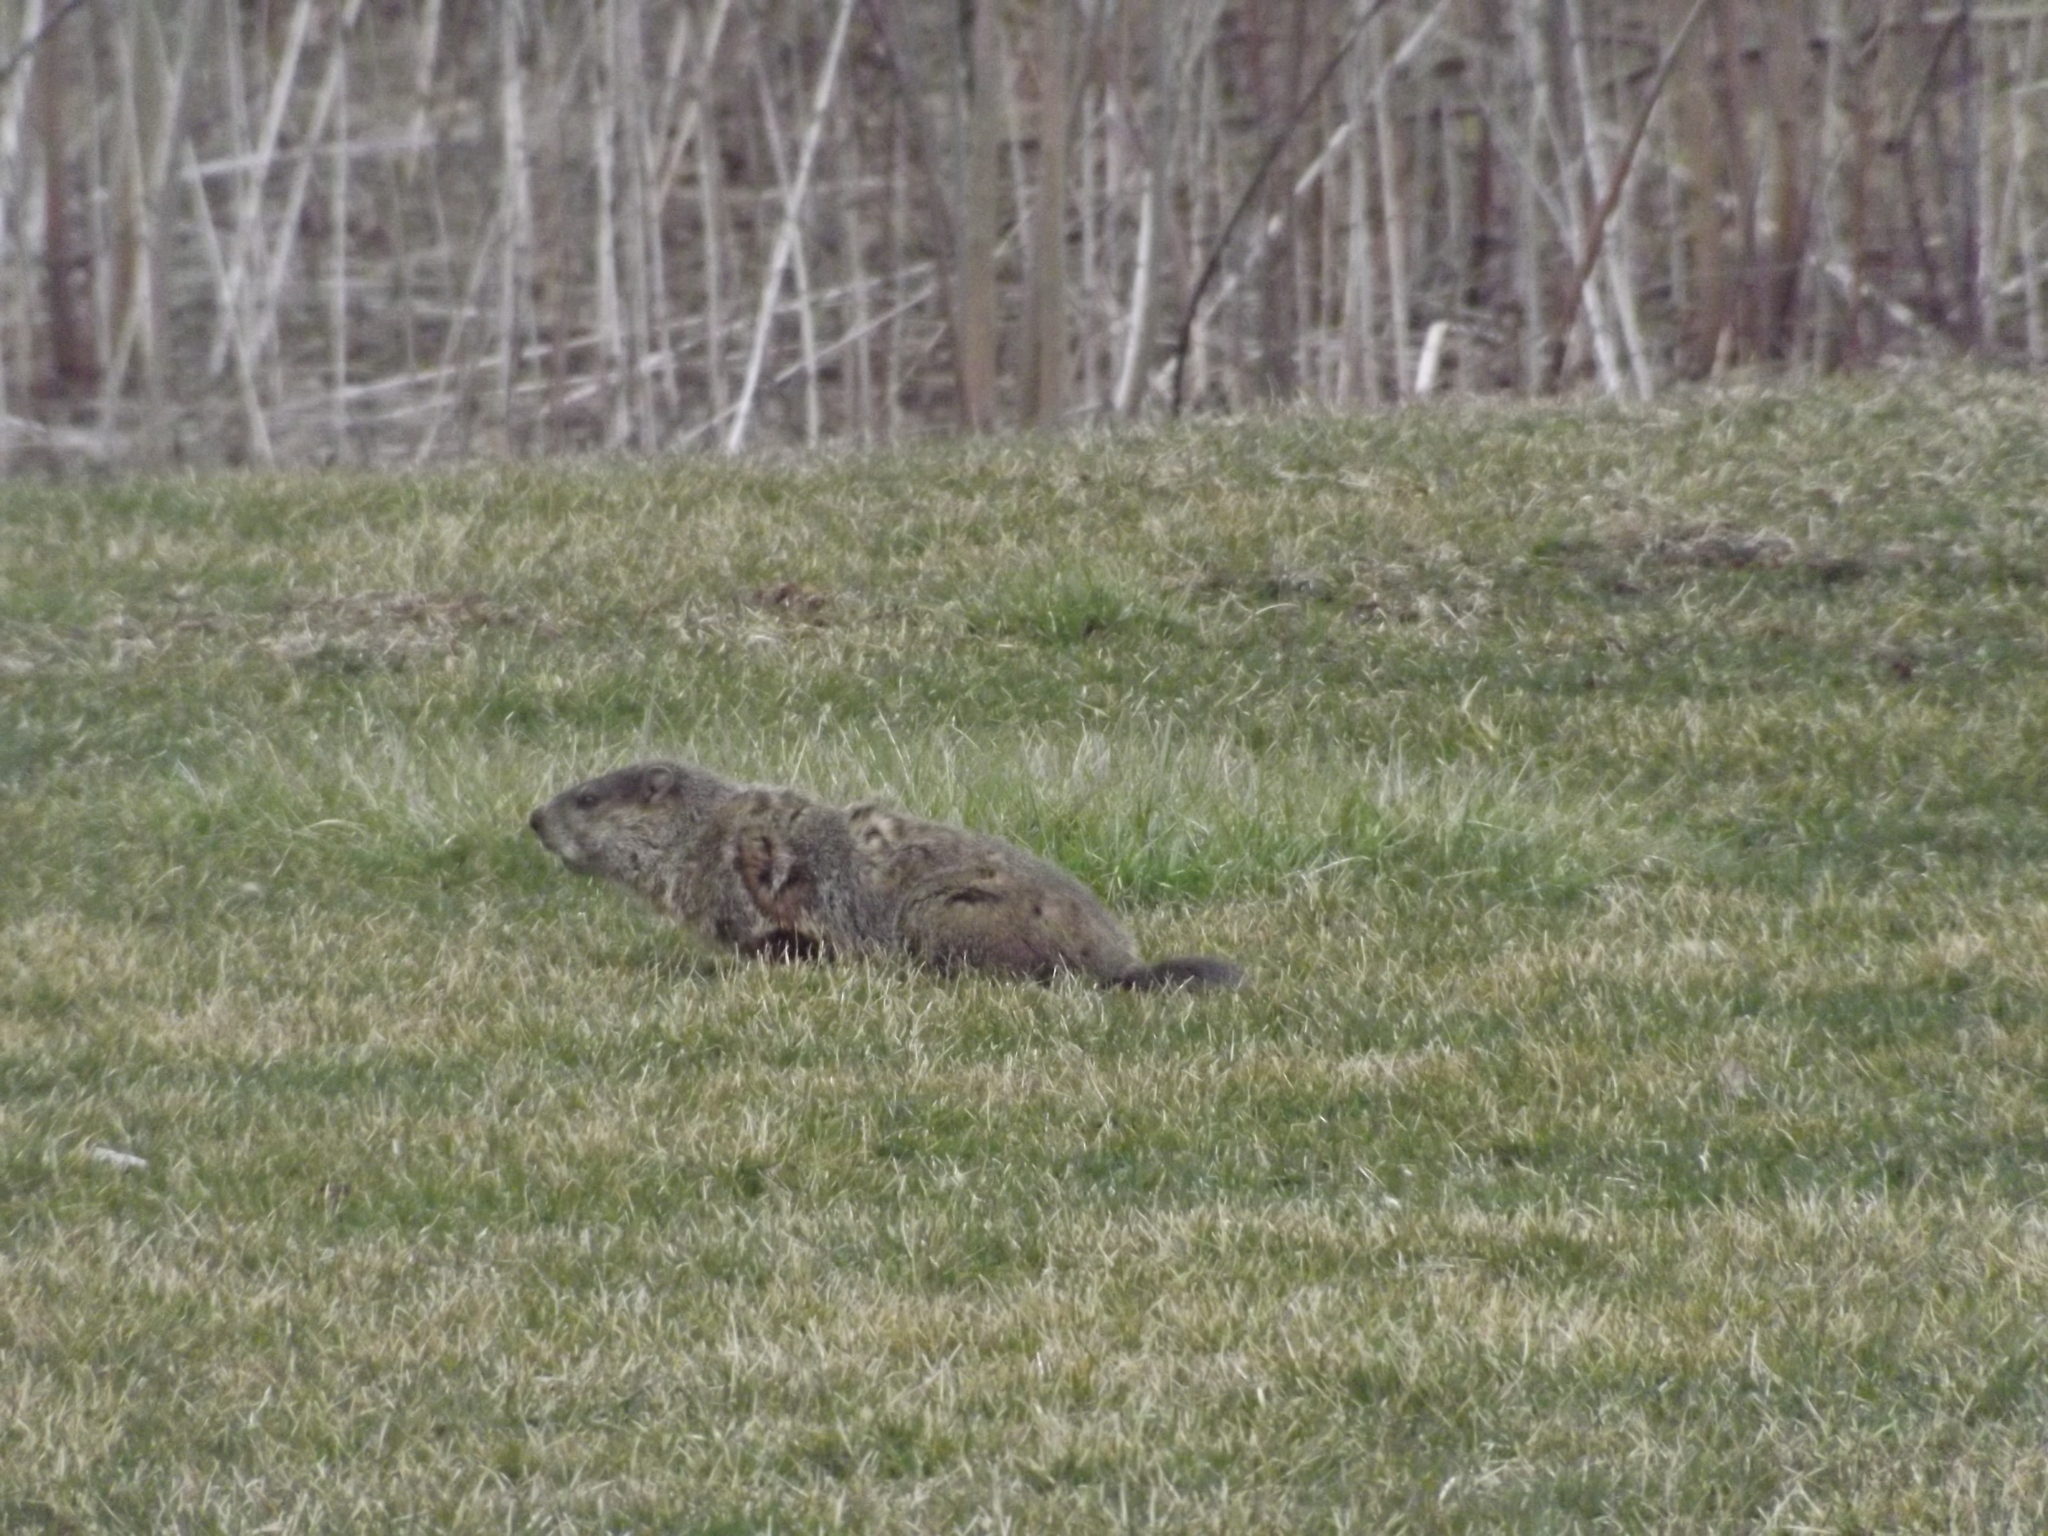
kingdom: Animalia
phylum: Chordata
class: Mammalia
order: Rodentia
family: Sciuridae
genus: Marmota
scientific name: Marmota monax
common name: Groundhog
